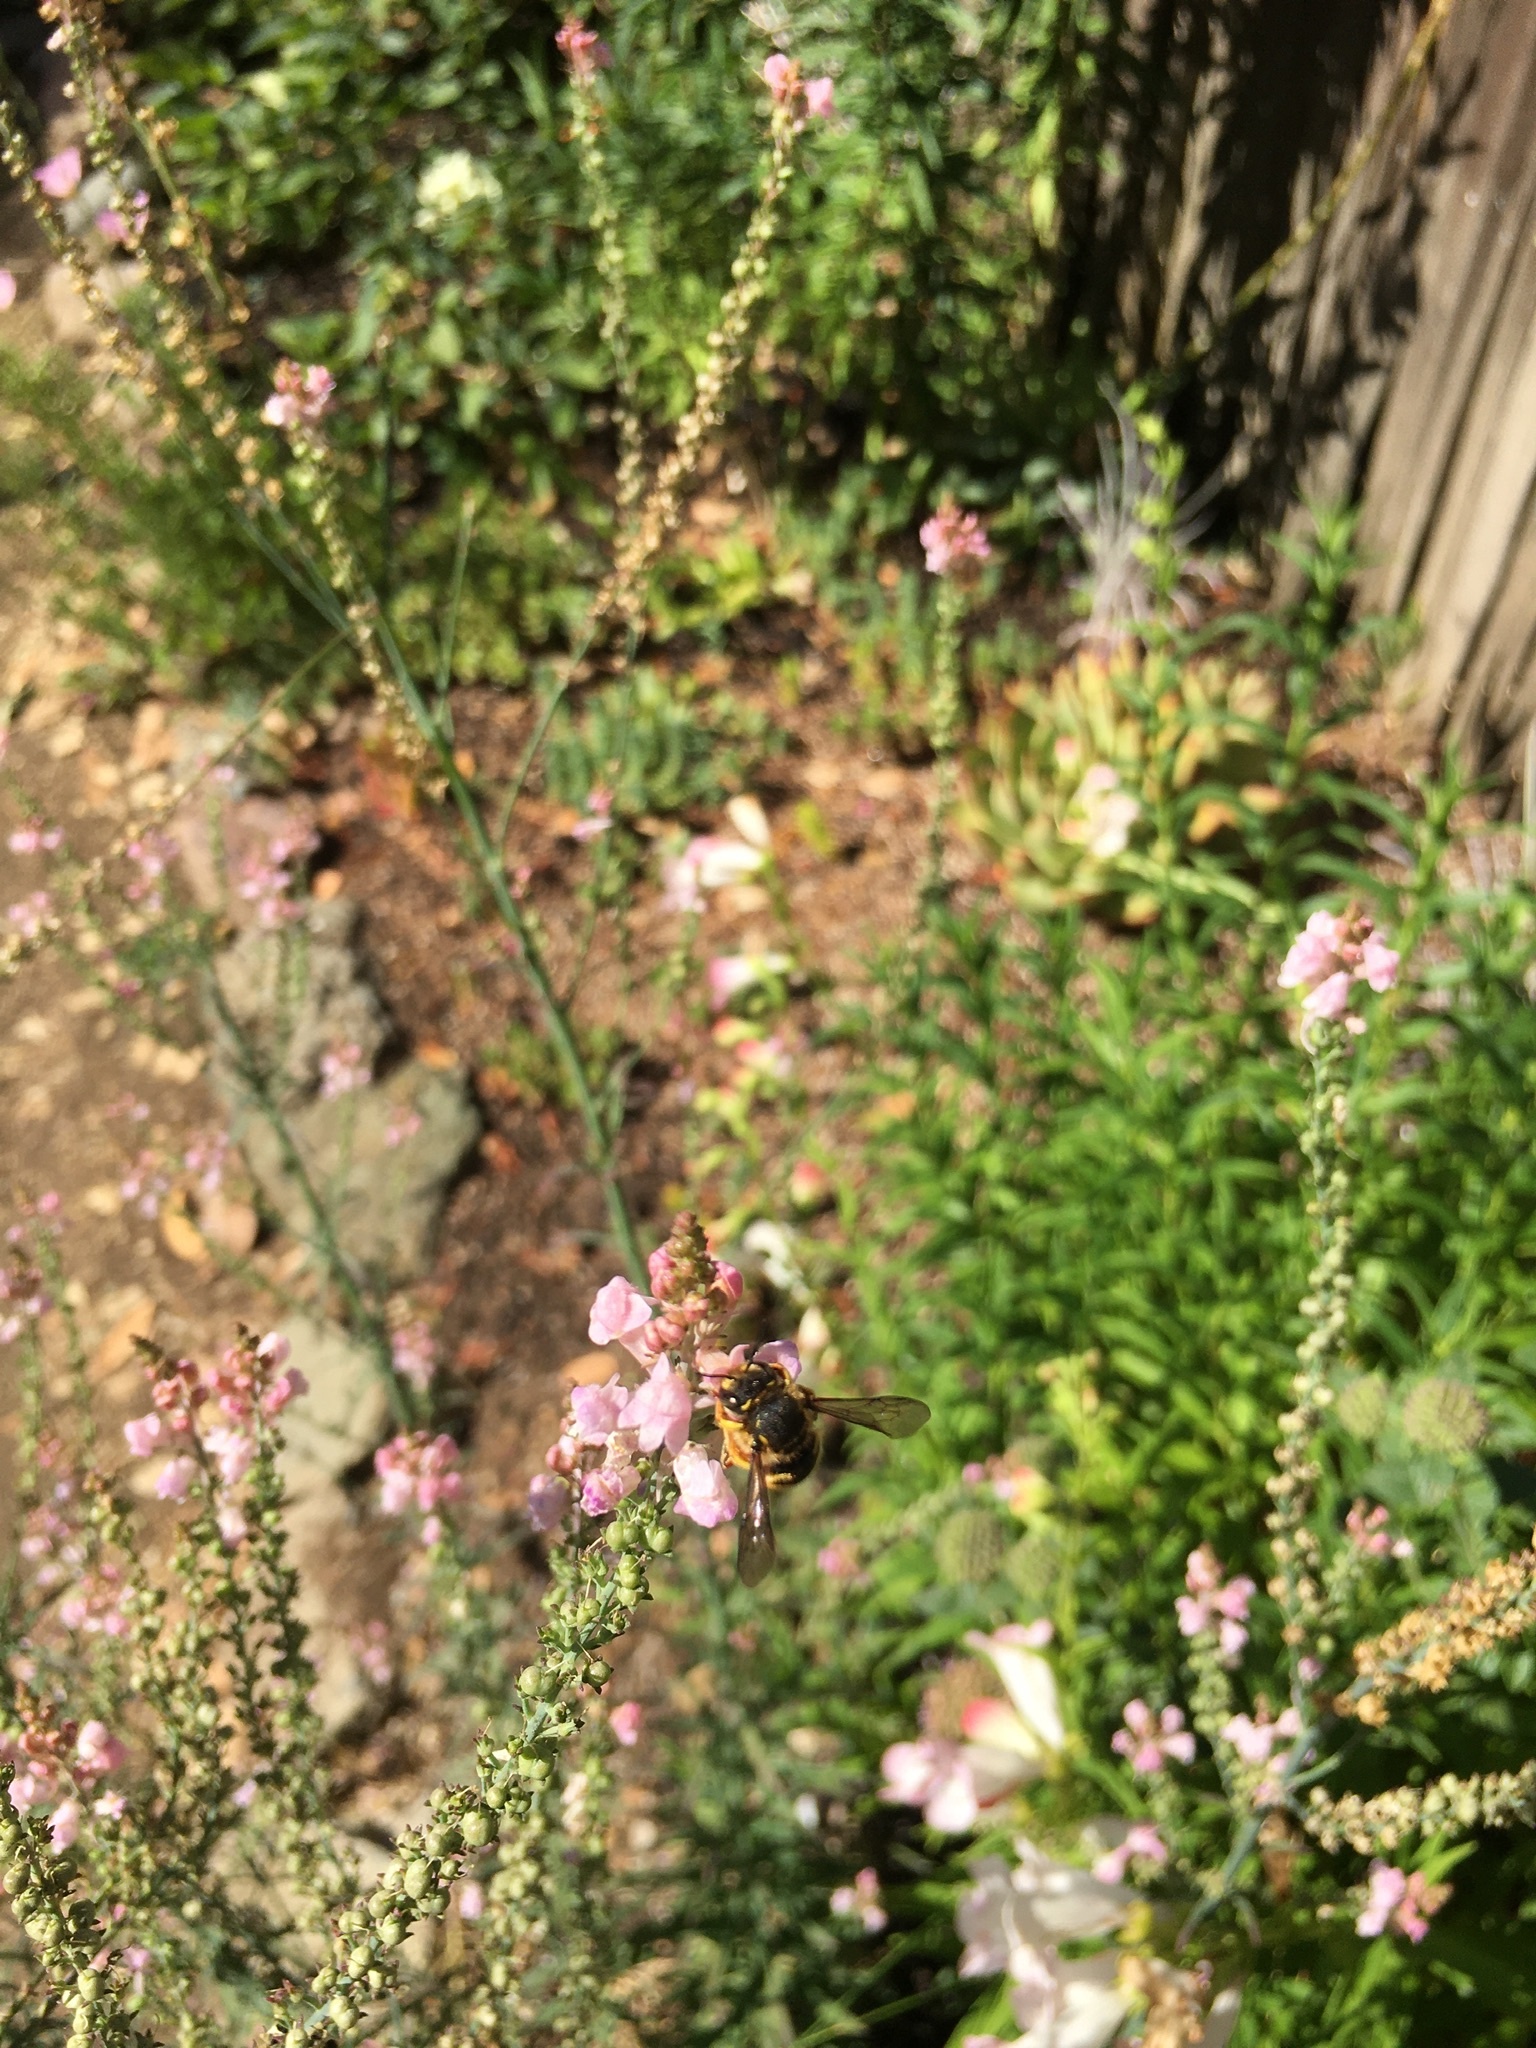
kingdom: Animalia
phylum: Arthropoda
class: Insecta
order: Hymenoptera
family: Megachilidae
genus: Anthidium
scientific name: Anthidium manicatum
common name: Wool carder bee
